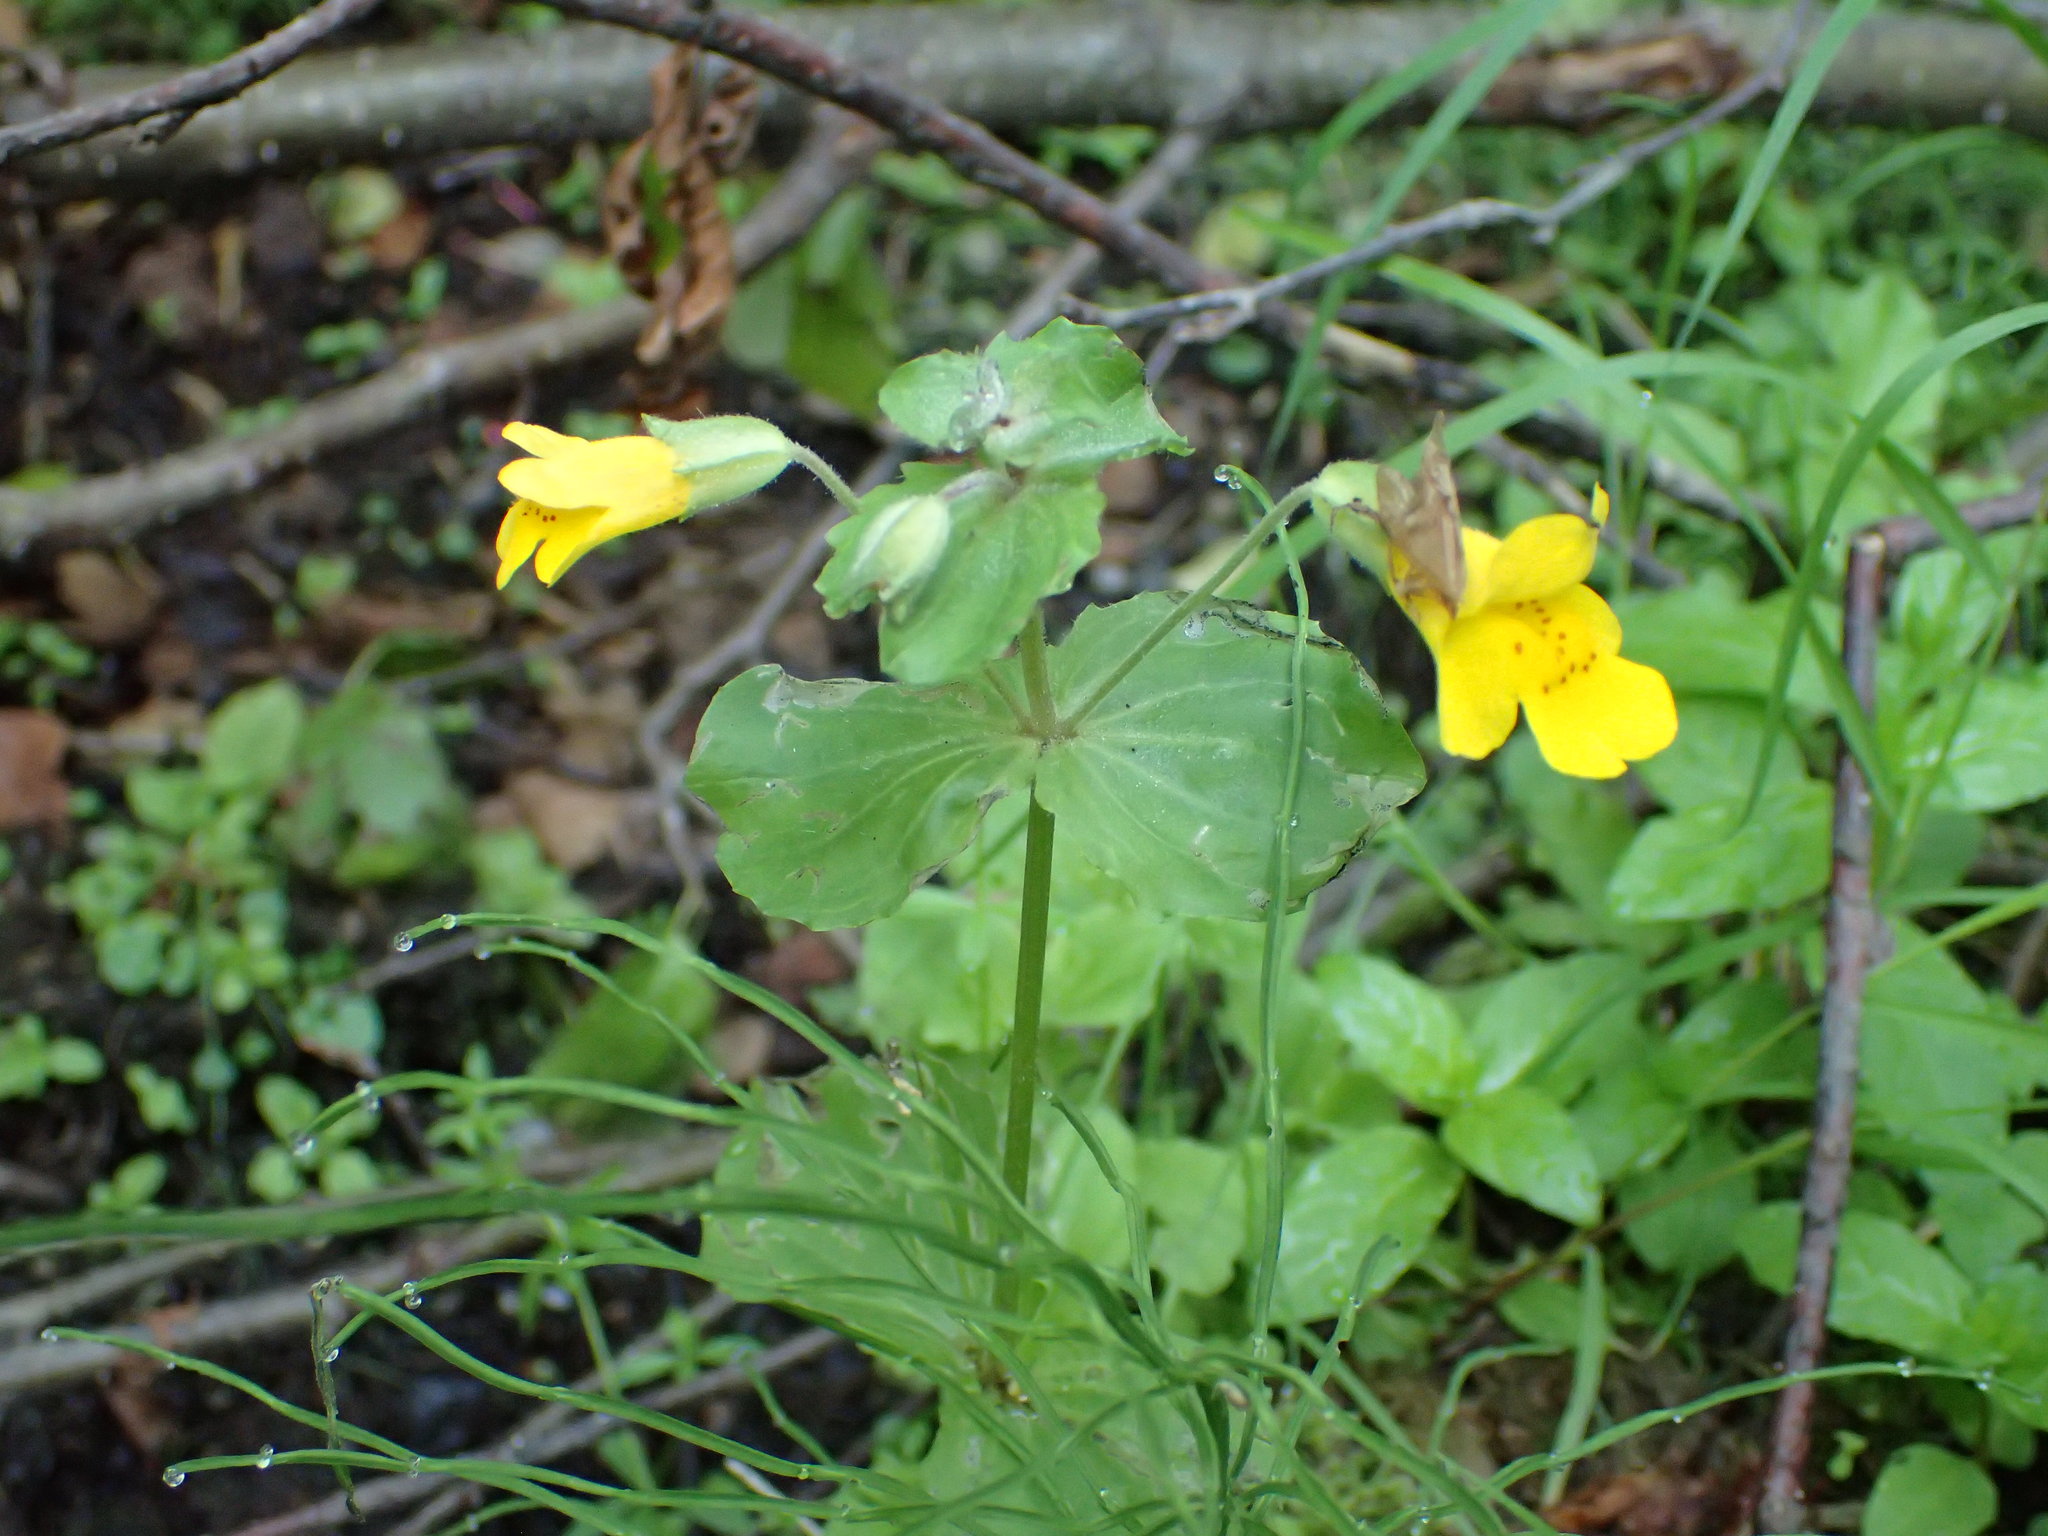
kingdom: Plantae
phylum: Tracheophyta
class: Magnoliopsida
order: Lamiales
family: Phrymaceae
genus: Erythranthe
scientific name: Erythranthe guttata
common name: Monkeyflower
